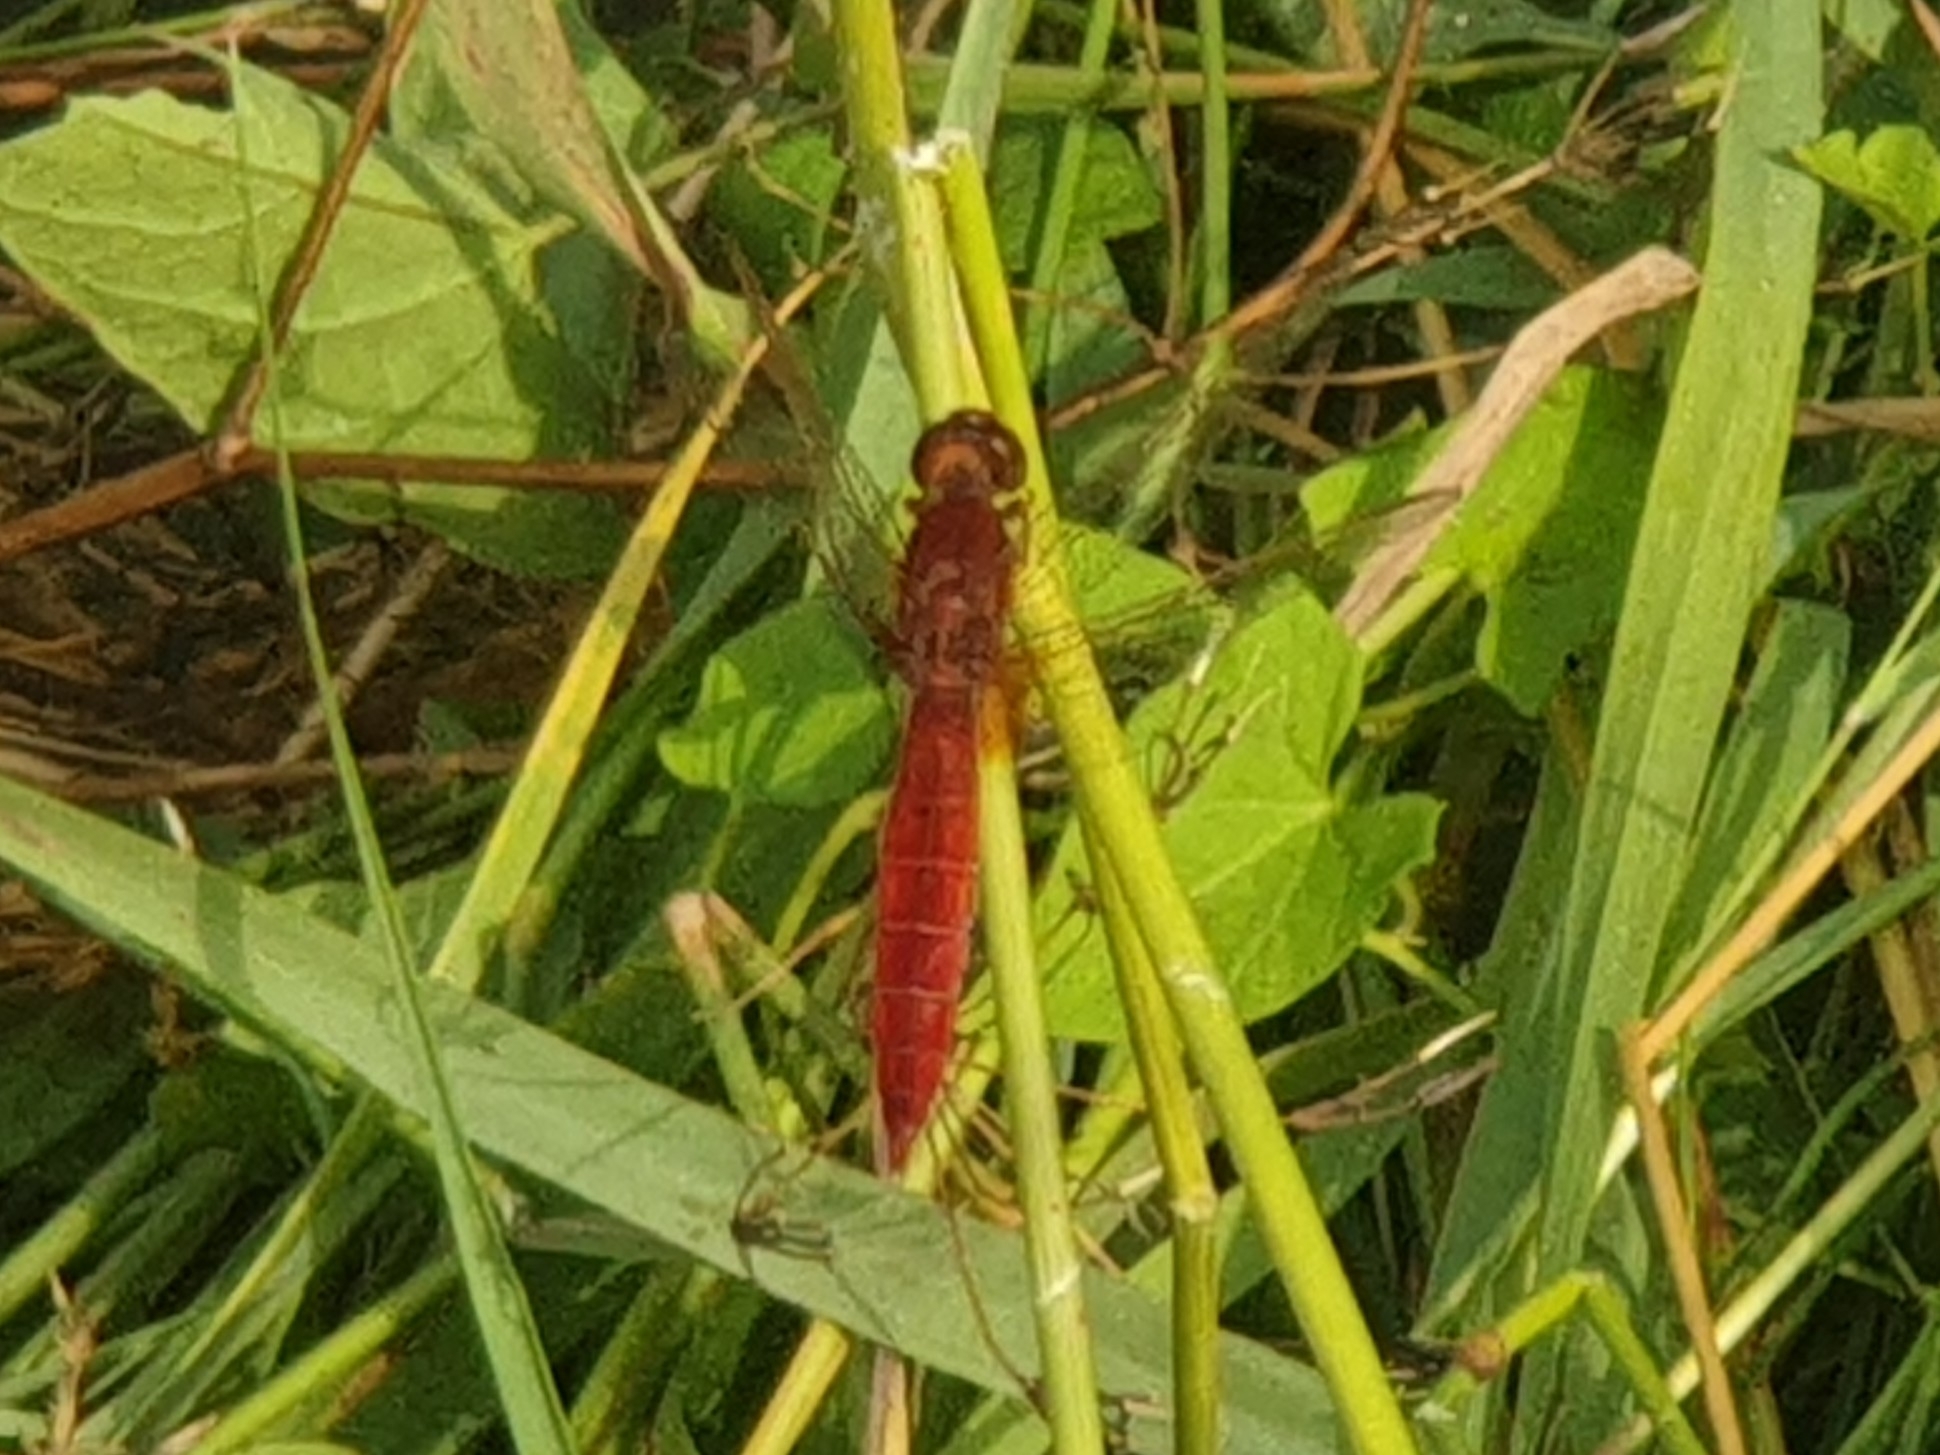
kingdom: Animalia
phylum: Arthropoda
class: Insecta
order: Odonata
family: Libellulidae
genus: Crocothemis
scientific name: Crocothemis erythraea
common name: Scarlet dragonfly
